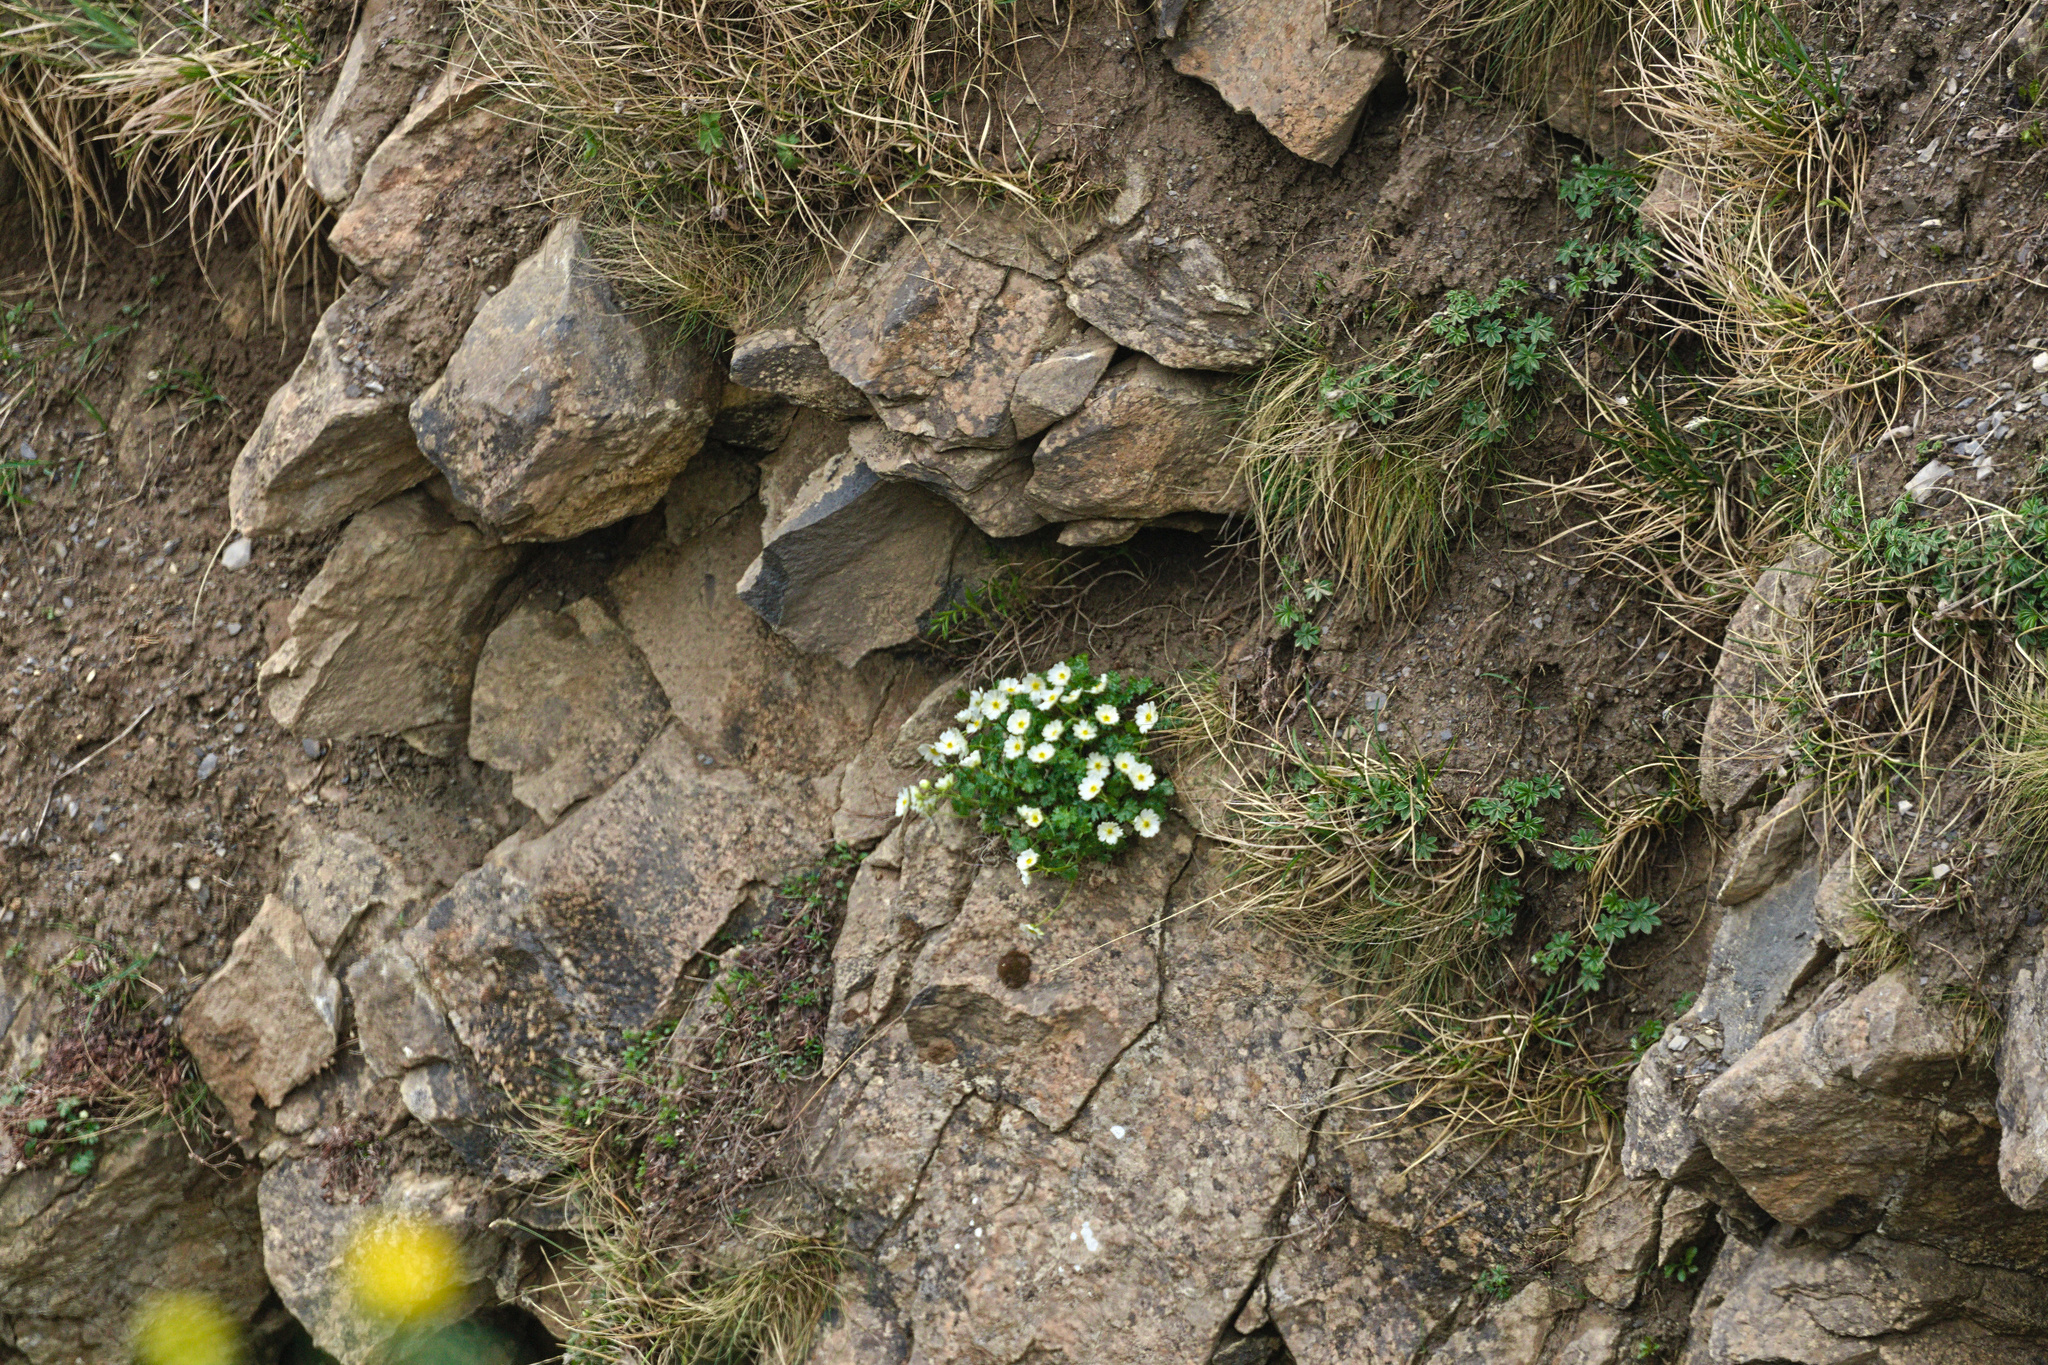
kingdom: Plantae
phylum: Tracheophyta
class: Magnoliopsida
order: Ranunculales
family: Ranunculaceae
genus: Ranunculus
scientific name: Ranunculus alpestris
